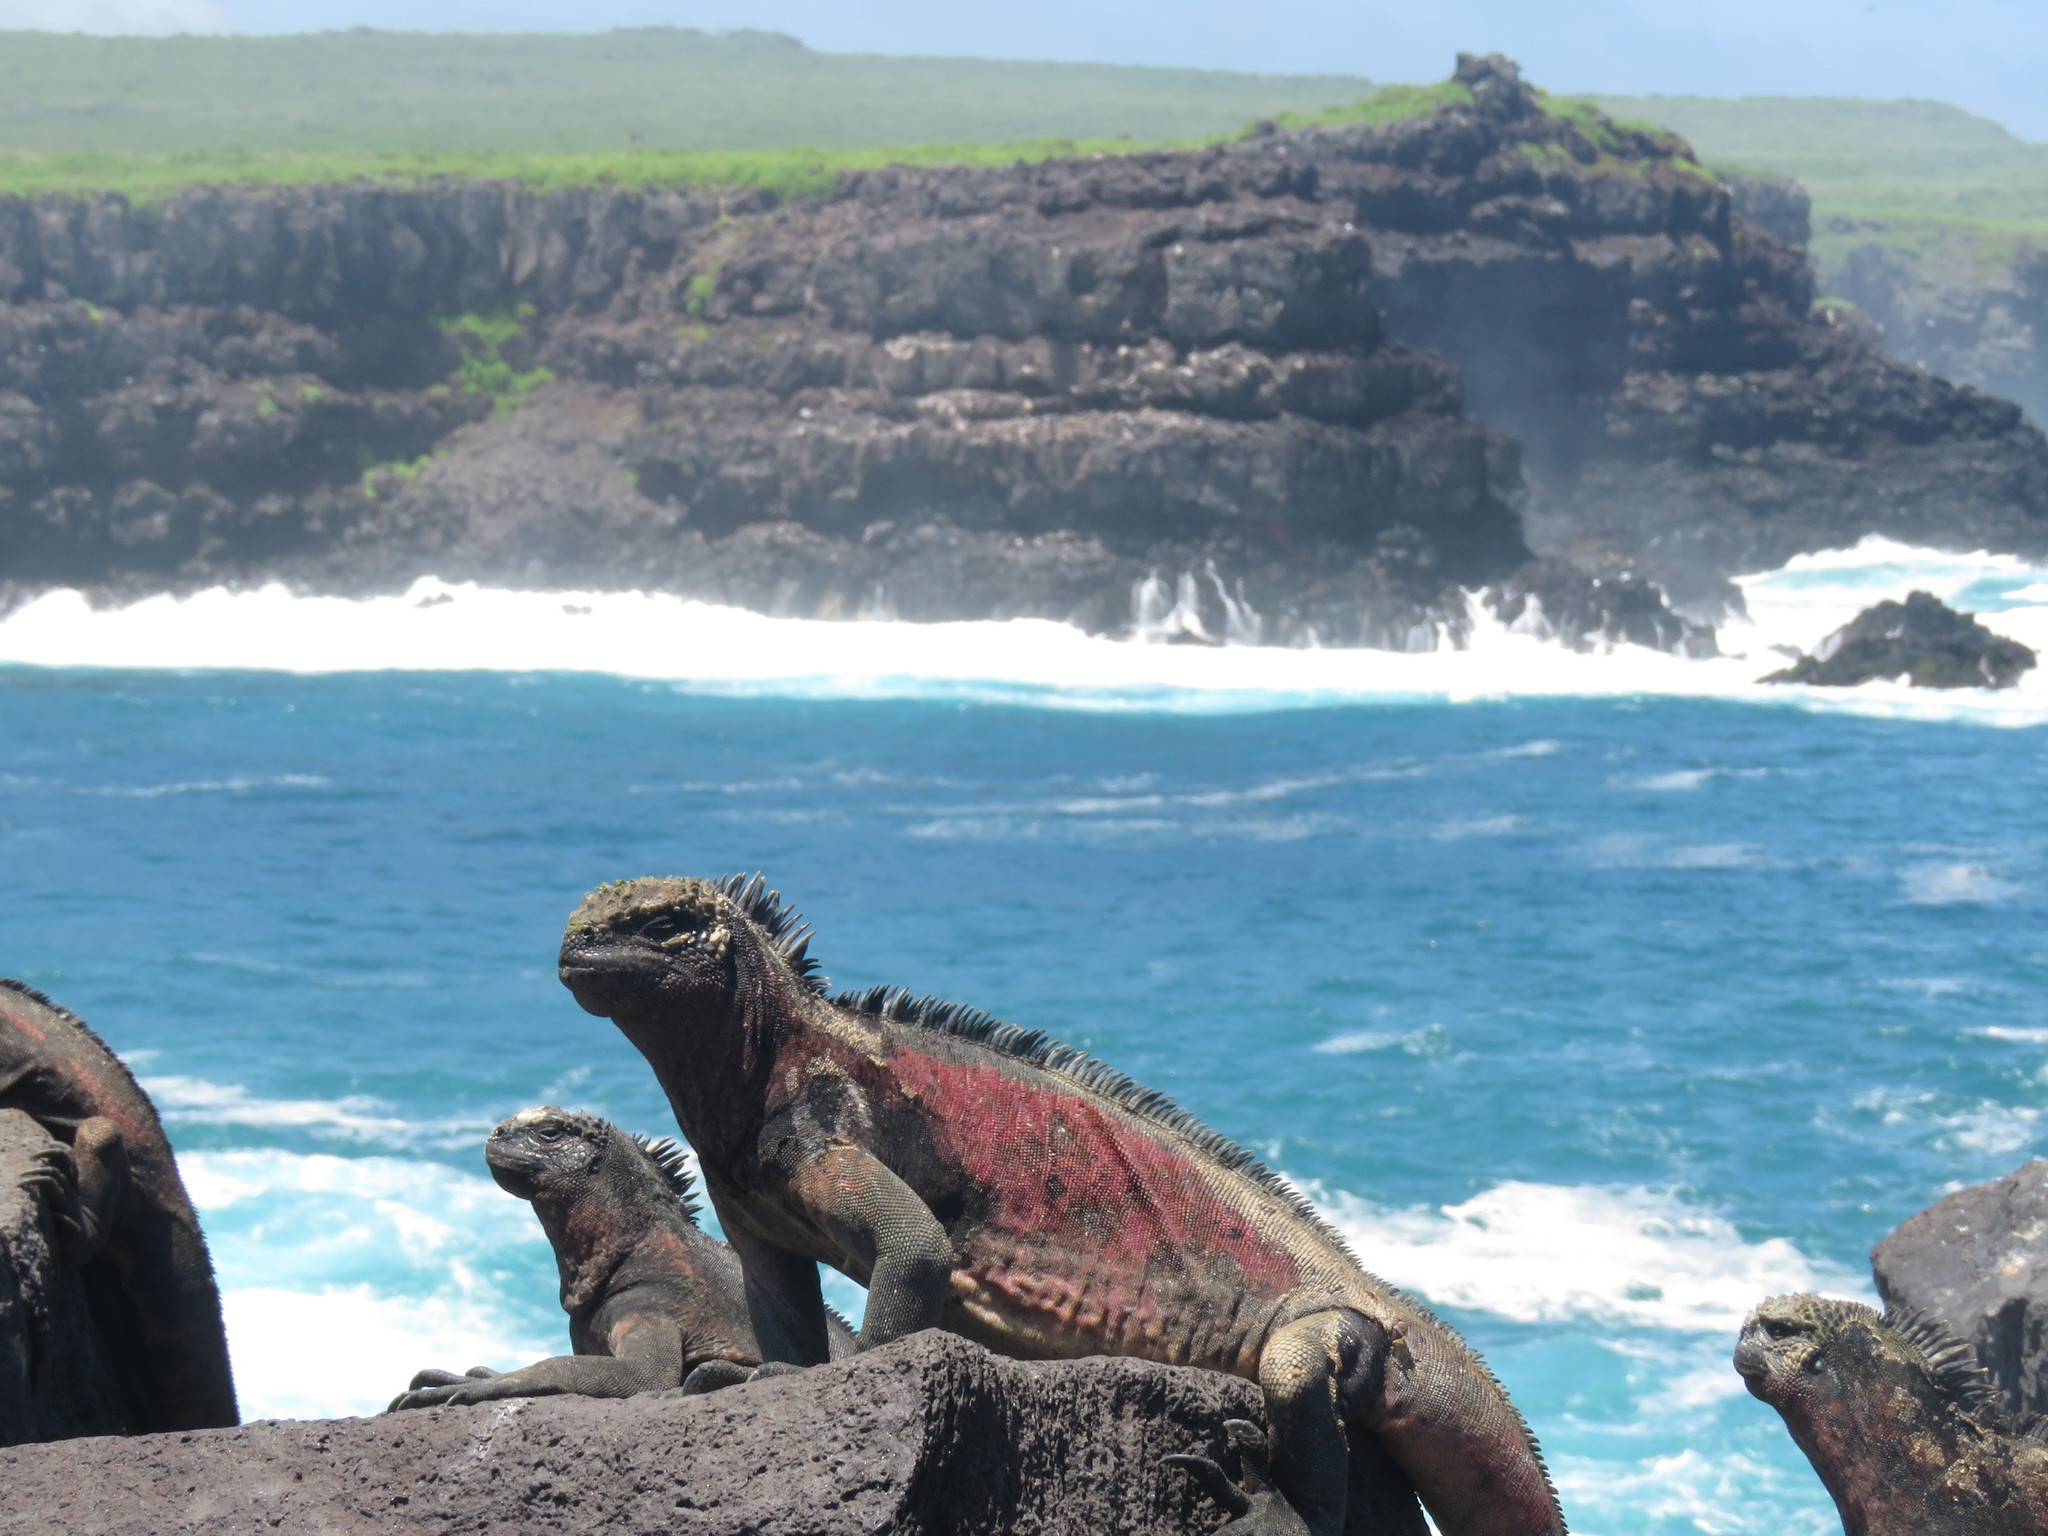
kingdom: Animalia
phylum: Chordata
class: Squamata
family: Iguanidae
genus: Amblyrhynchus
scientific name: Amblyrhynchus cristatus
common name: Marine iguana
